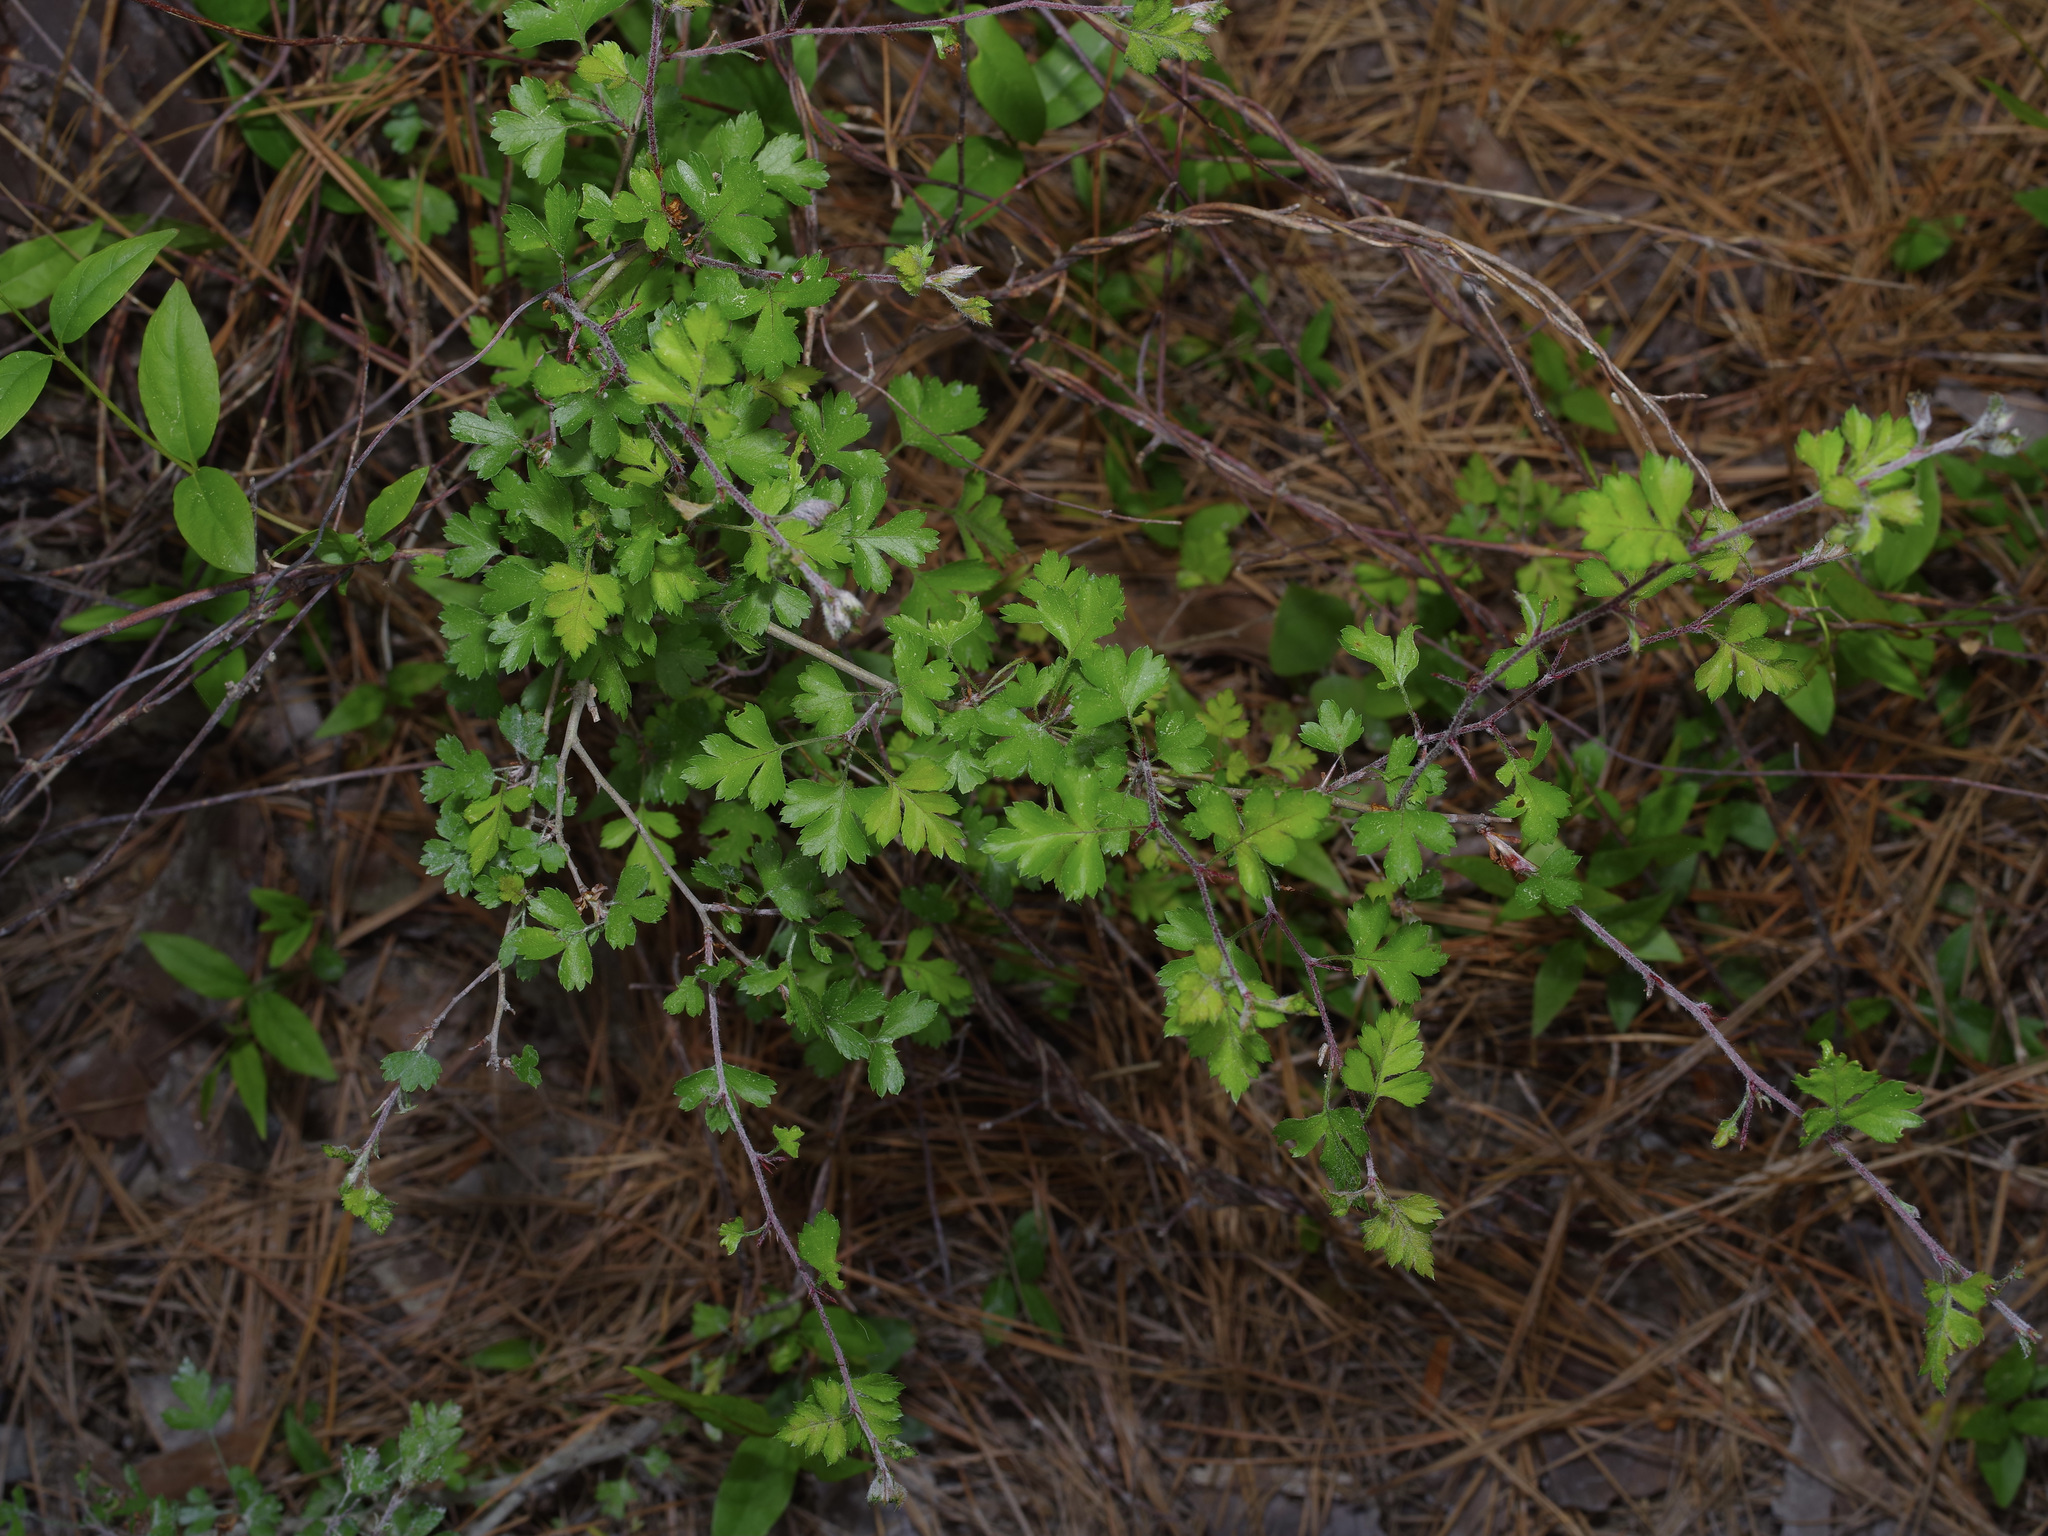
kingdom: Plantae
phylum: Tracheophyta
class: Magnoliopsida
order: Rosales
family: Rosaceae
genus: Crataegus
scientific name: Crataegus marshallii
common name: Parsley-hawthorn
